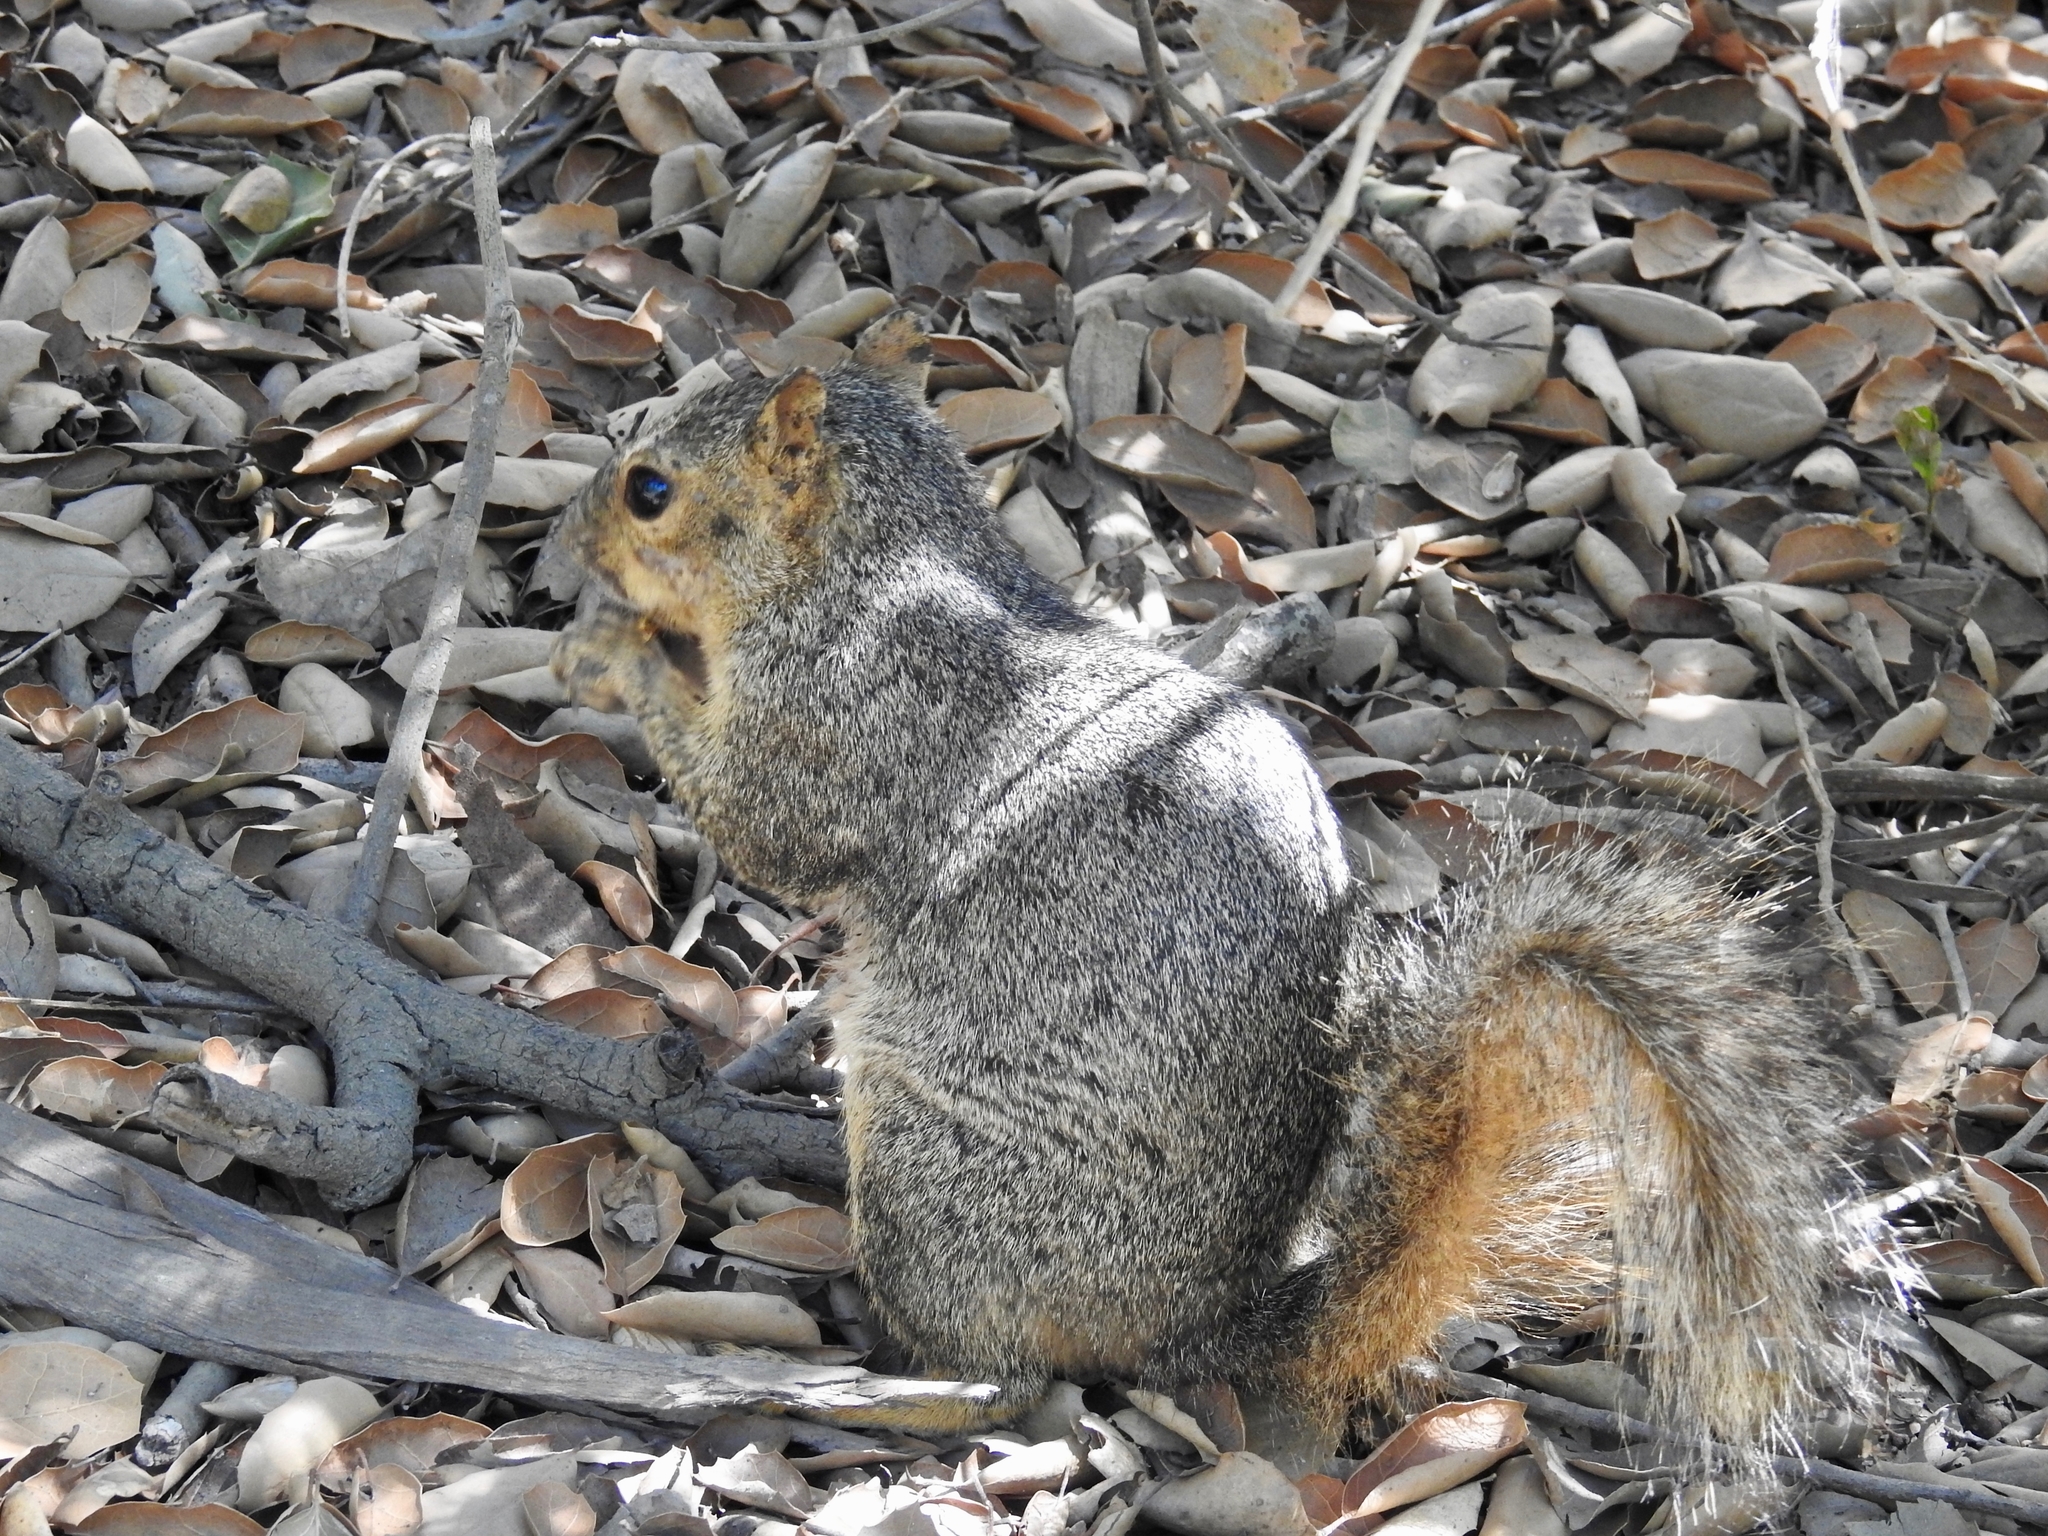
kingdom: Animalia
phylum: Chordata
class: Mammalia
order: Rodentia
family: Sciuridae
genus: Sciurus
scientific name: Sciurus niger
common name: Fox squirrel
